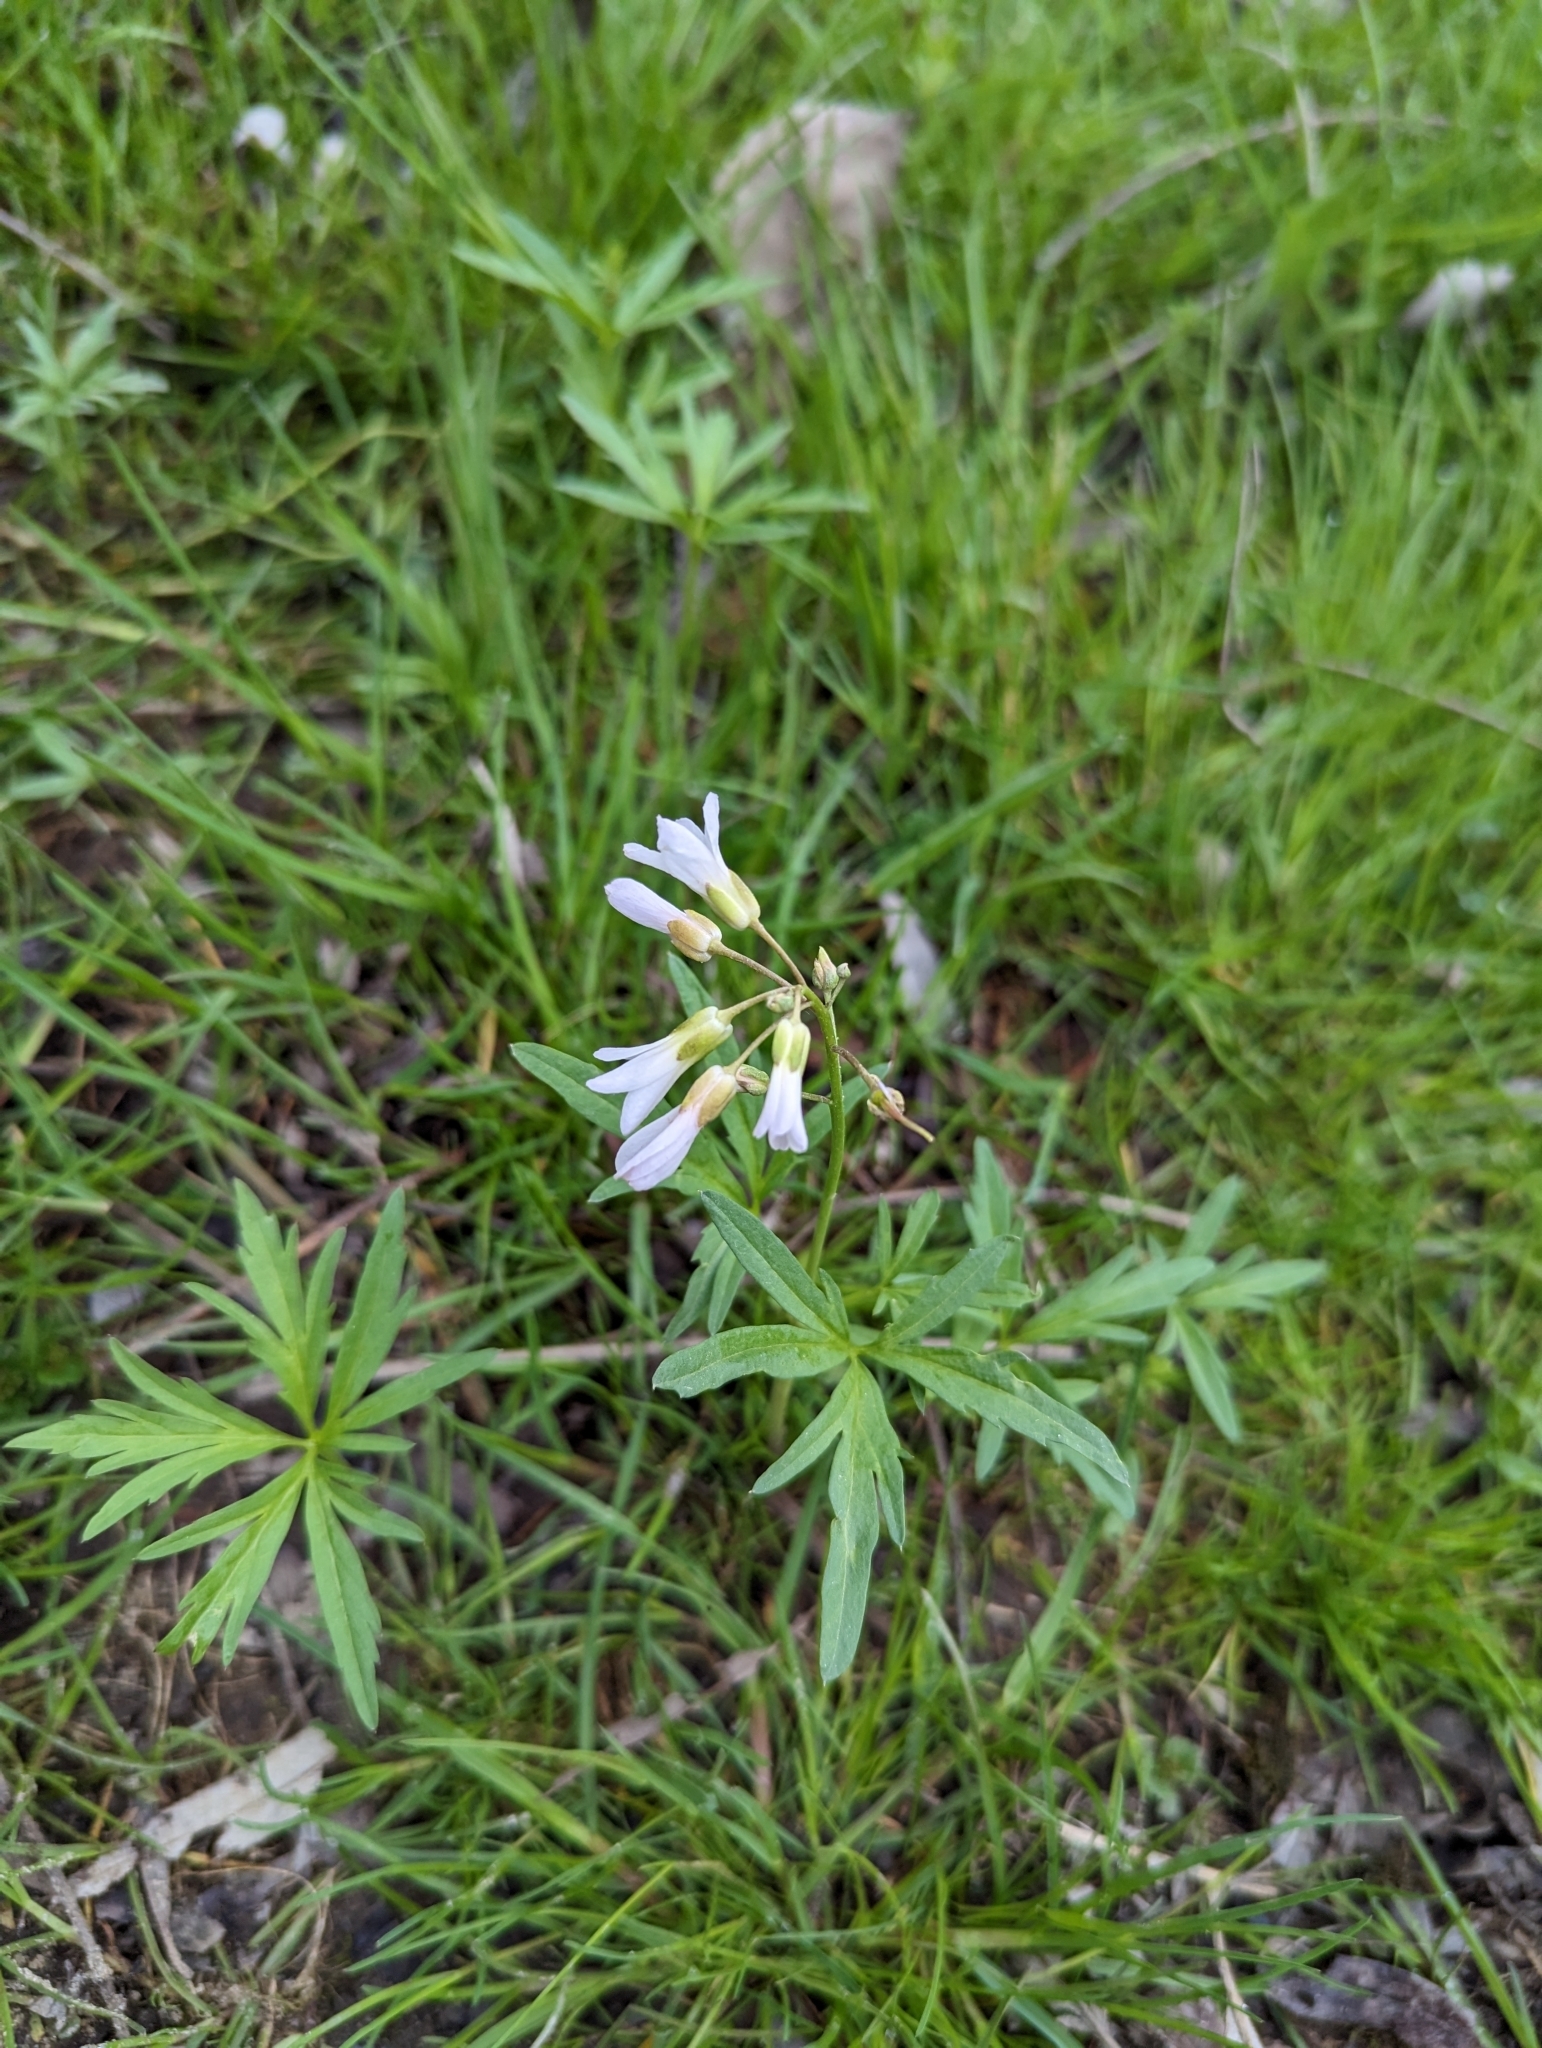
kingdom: Plantae
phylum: Tracheophyta
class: Magnoliopsida
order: Brassicales
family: Brassicaceae
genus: Cardamine
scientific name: Cardamine concatenata
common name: Cut-leaf toothcup
